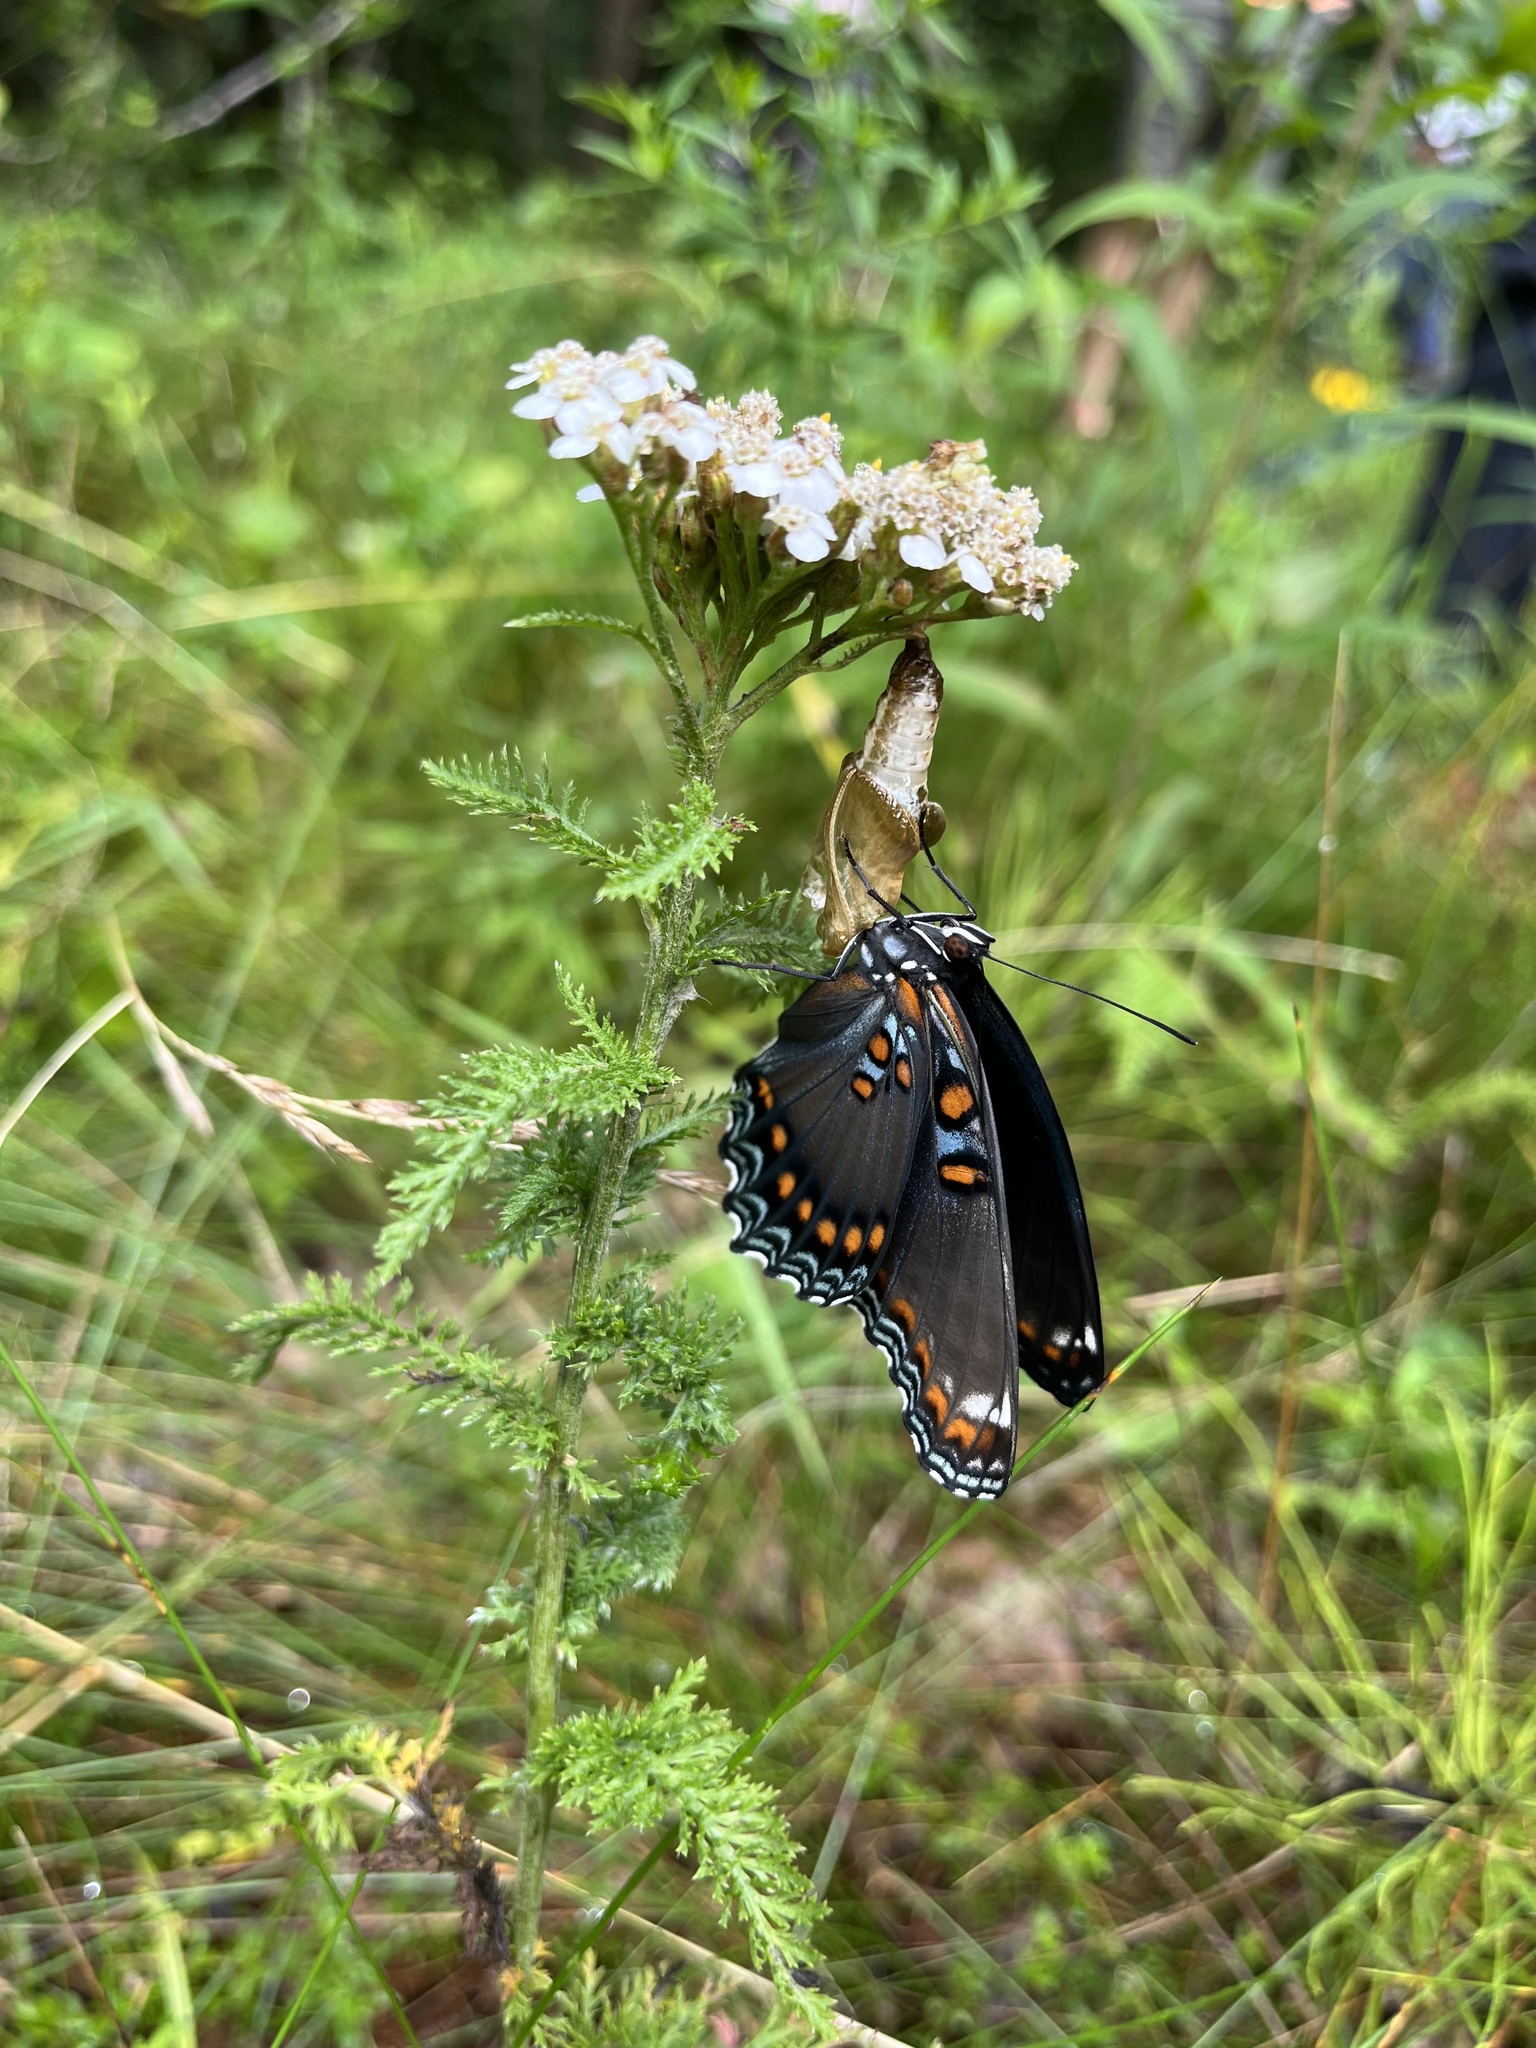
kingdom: Animalia
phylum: Arthropoda
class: Insecta
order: Lepidoptera
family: Nymphalidae
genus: Limenitis
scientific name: Limenitis arthemis
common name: Red-spotted admiral
